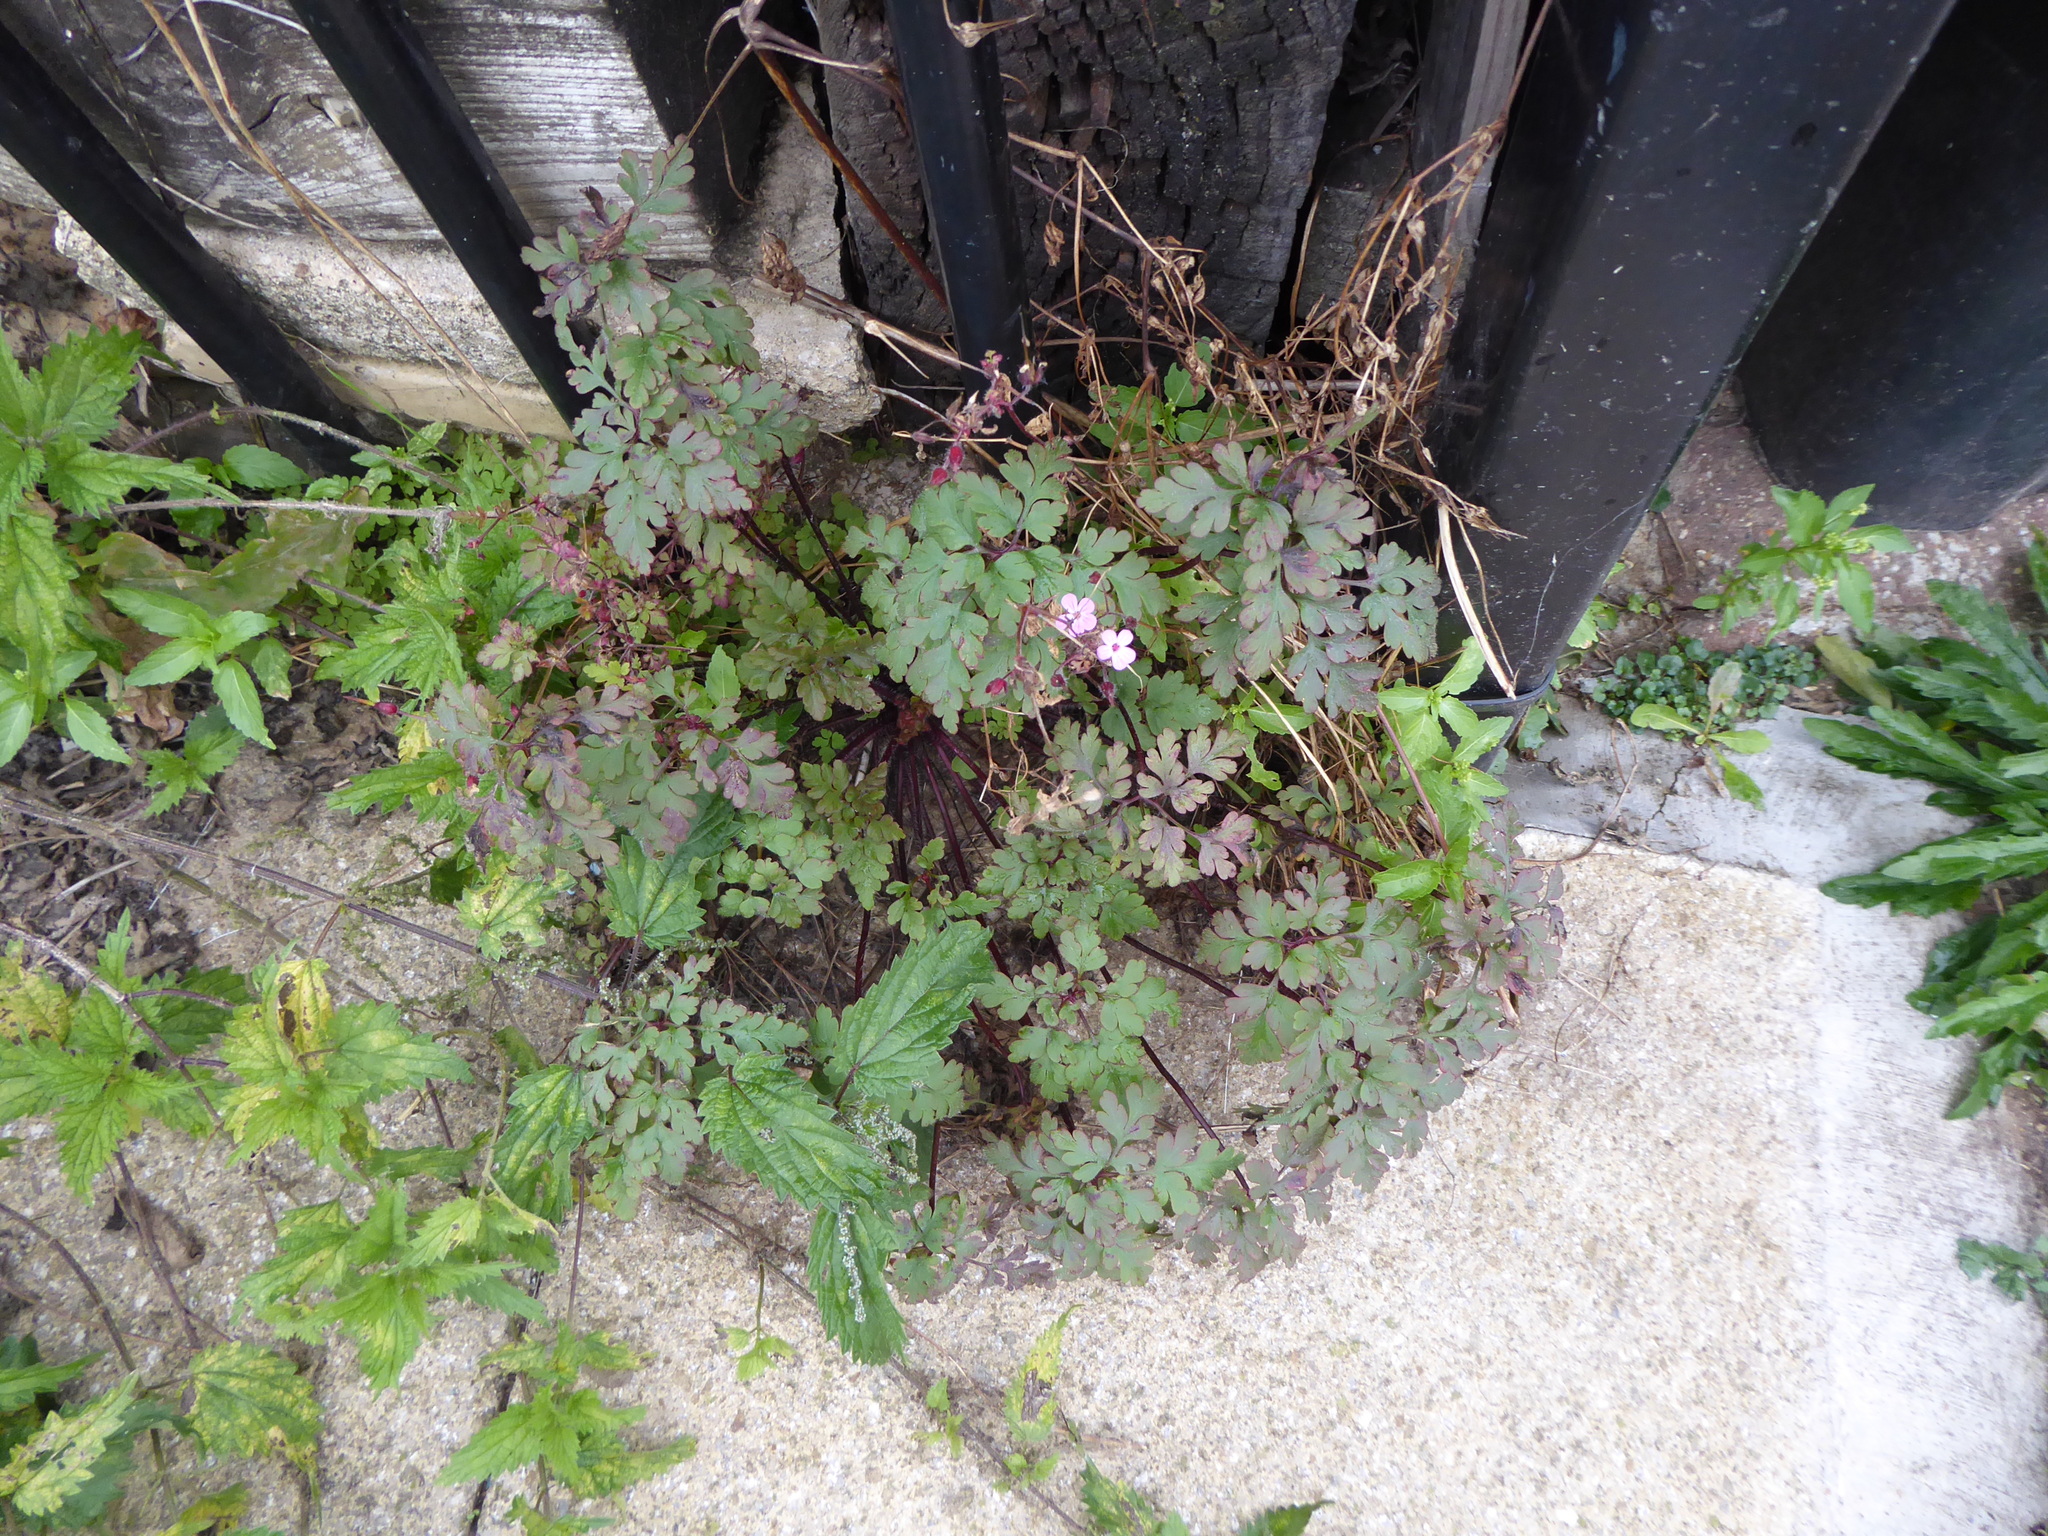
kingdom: Plantae
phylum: Tracheophyta
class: Magnoliopsida
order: Geraniales
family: Geraniaceae
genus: Geranium
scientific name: Geranium robertianum
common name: Herb-robert
